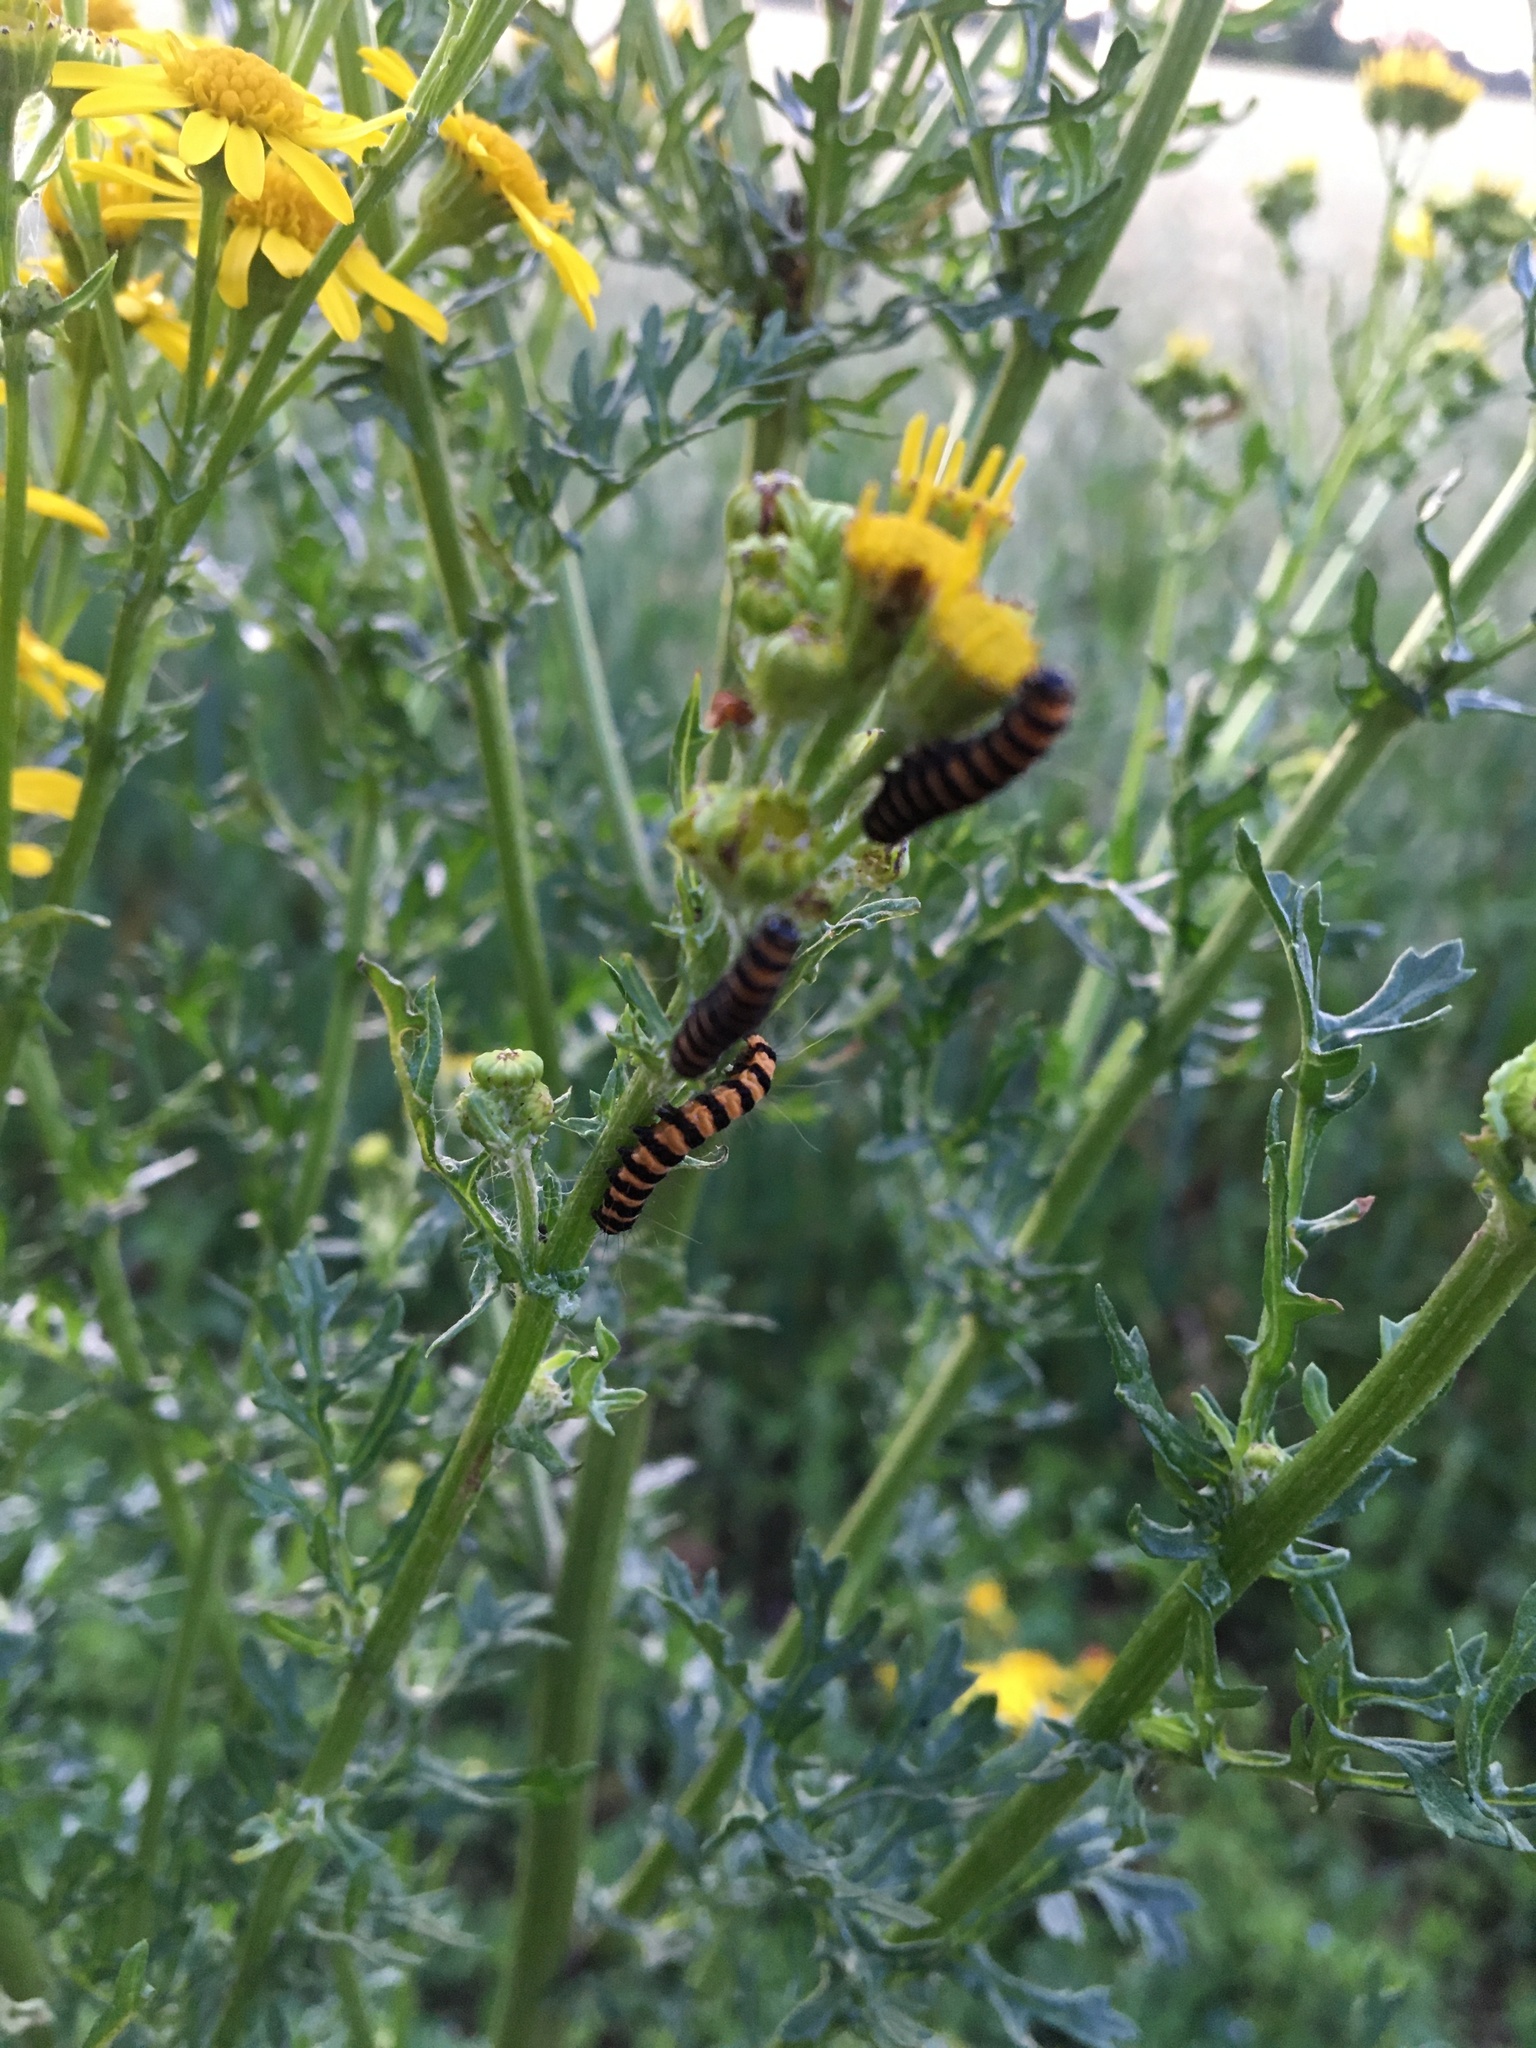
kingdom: Animalia
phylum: Arthropoda
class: Insecta
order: Lepidoptera
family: Erebidae
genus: Tyria
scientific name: Tyria jacobaeae
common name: Cinnabar
